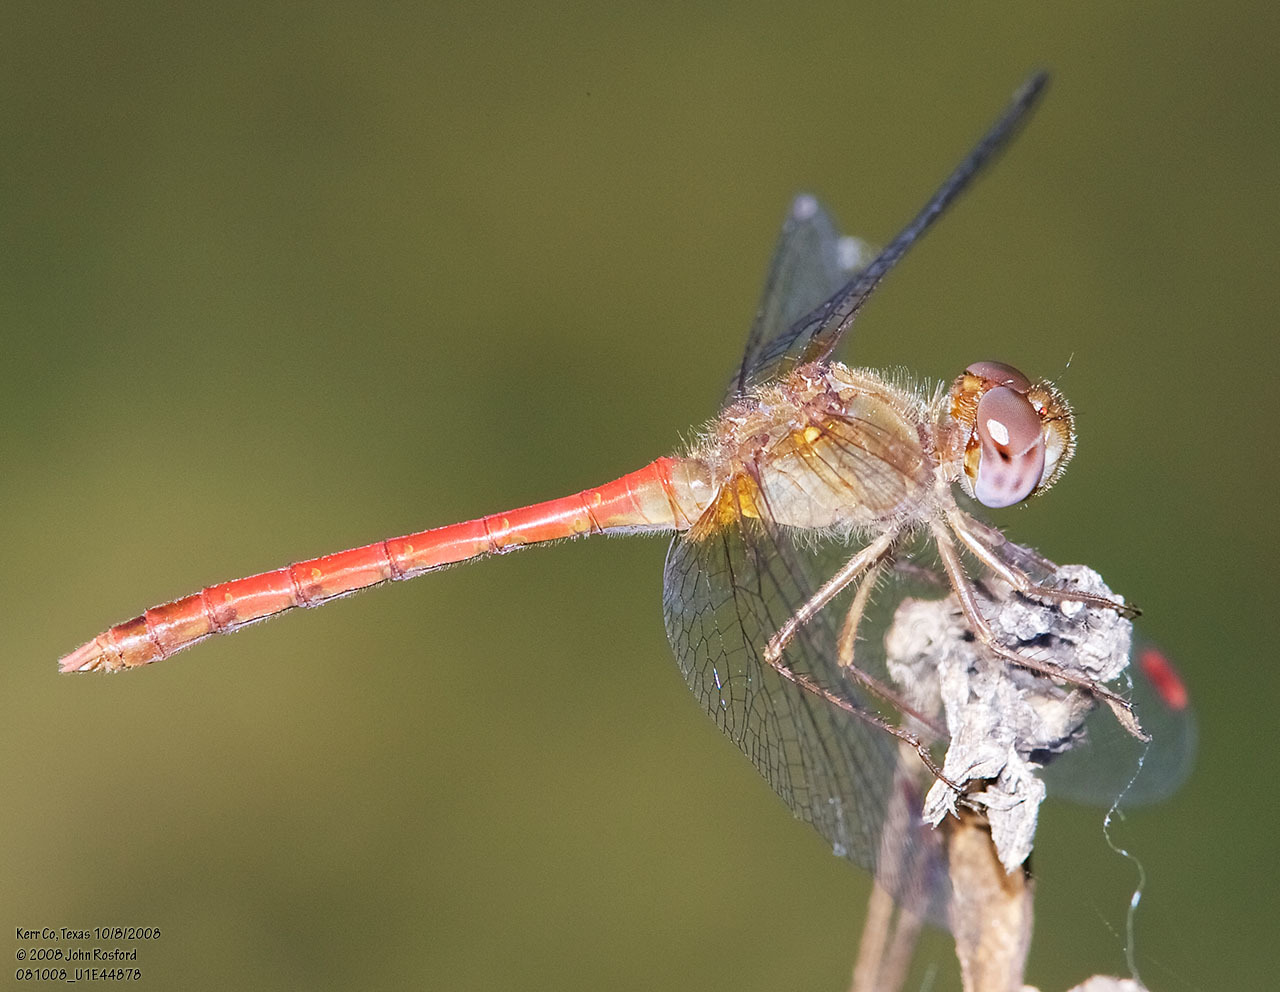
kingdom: Animalia
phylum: Arthropoda
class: Insecta
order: Odonata
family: Libellulidae
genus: Sympetrum
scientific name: Sympetrum vicinum
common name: Autumn meadowhawk
